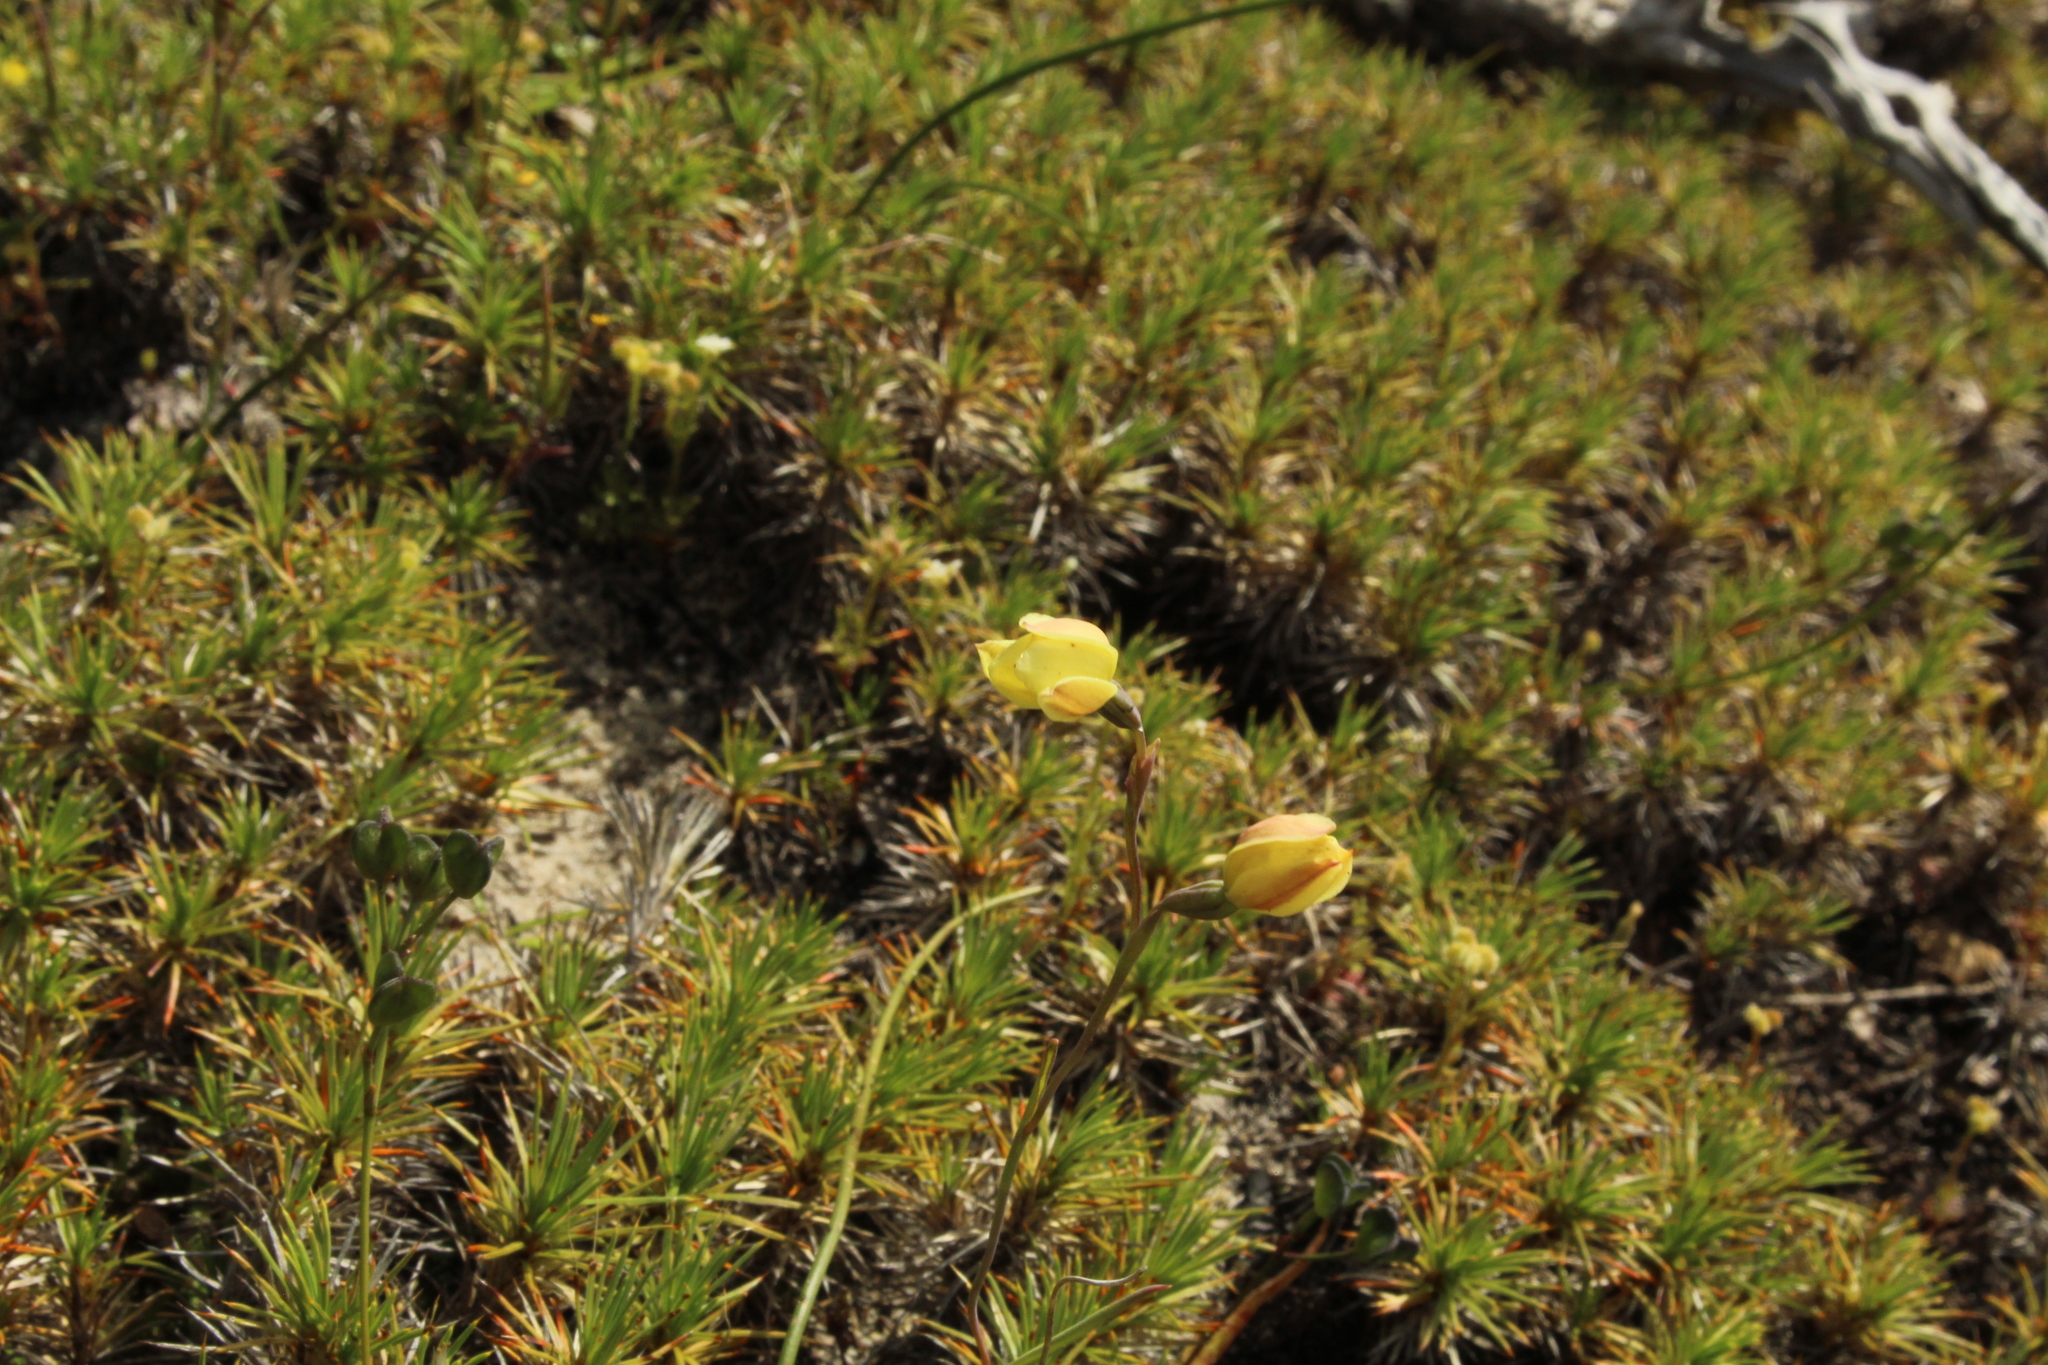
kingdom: Plantae
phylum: Tracheophyta
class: Liliopsida
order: Asparagales
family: Orchidaceae
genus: Thelymitra
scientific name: Thelymitra antennifera
